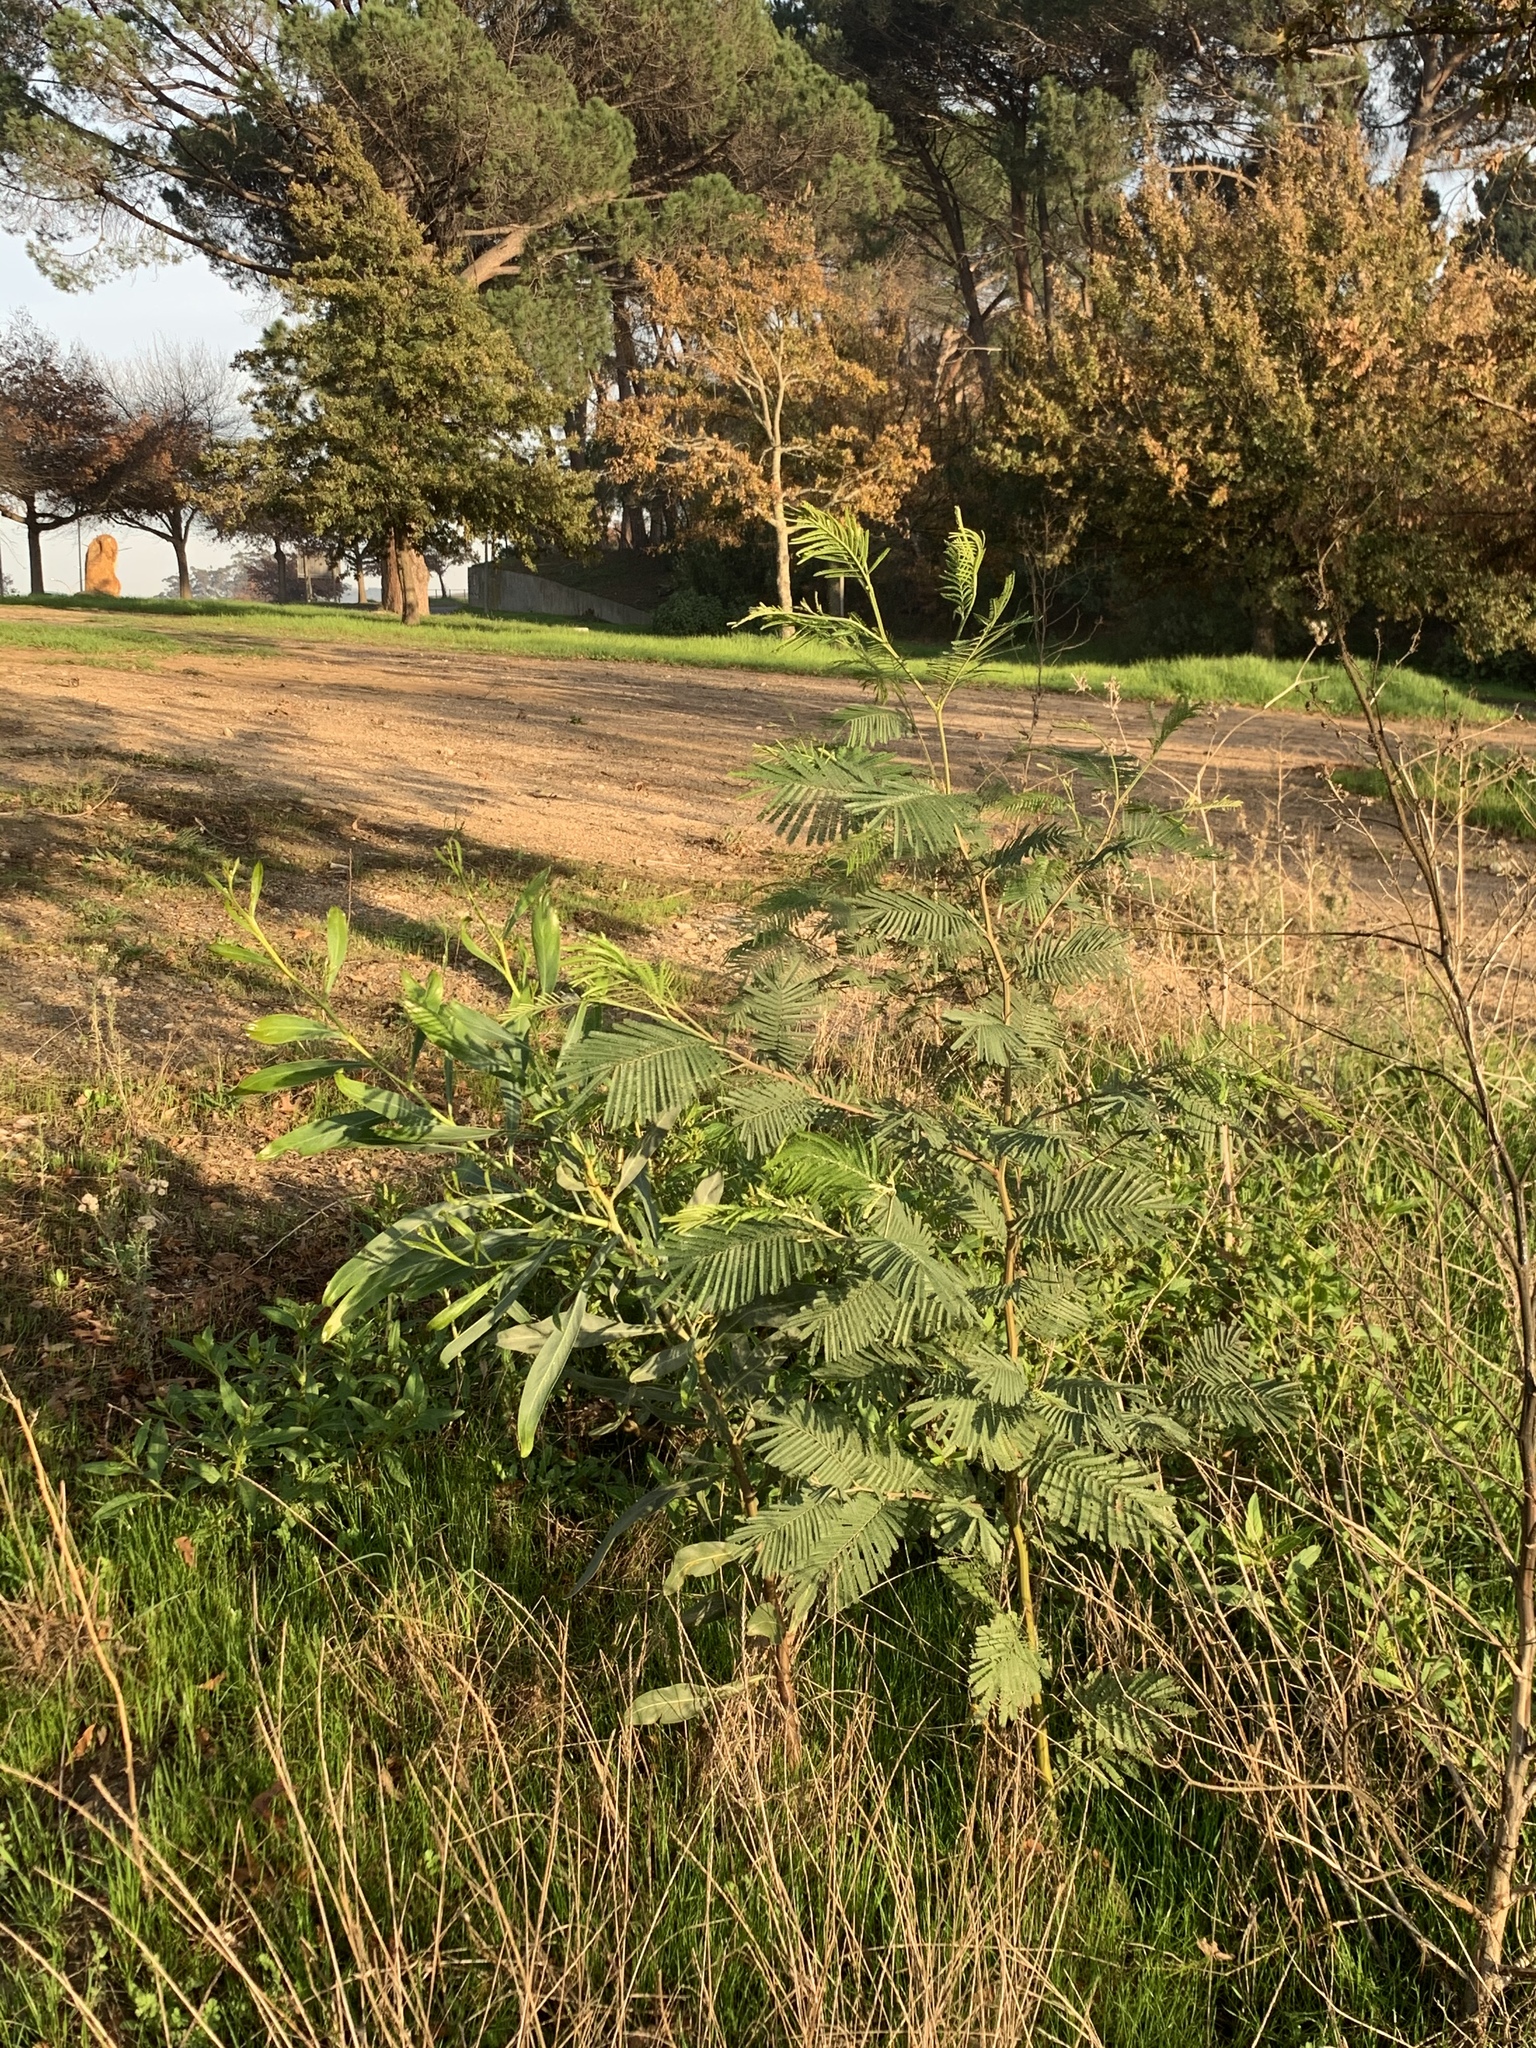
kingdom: Plantae
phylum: Tracheophyta
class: Magnoliopsida
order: Fabales
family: Fabaceae
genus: Acacia
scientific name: Acacia mearnsii
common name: Black wattle
